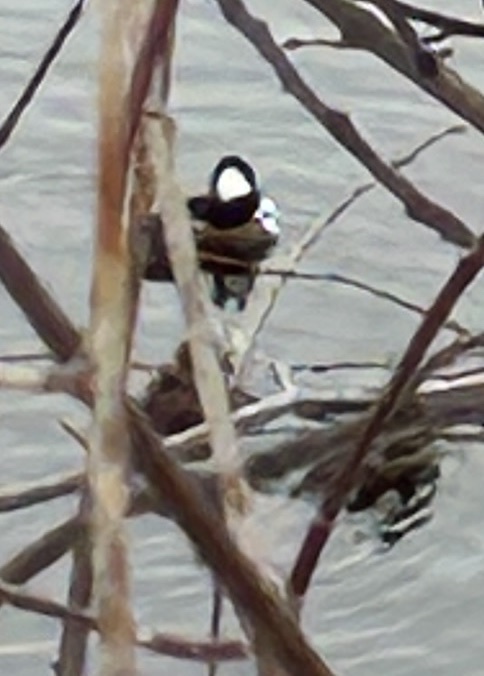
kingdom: Animalia
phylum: Chordata
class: Aves
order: Anseriformes
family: Anatidae
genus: Lophodytes
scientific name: Lophodytes cucullatus
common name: Hooded merganser
